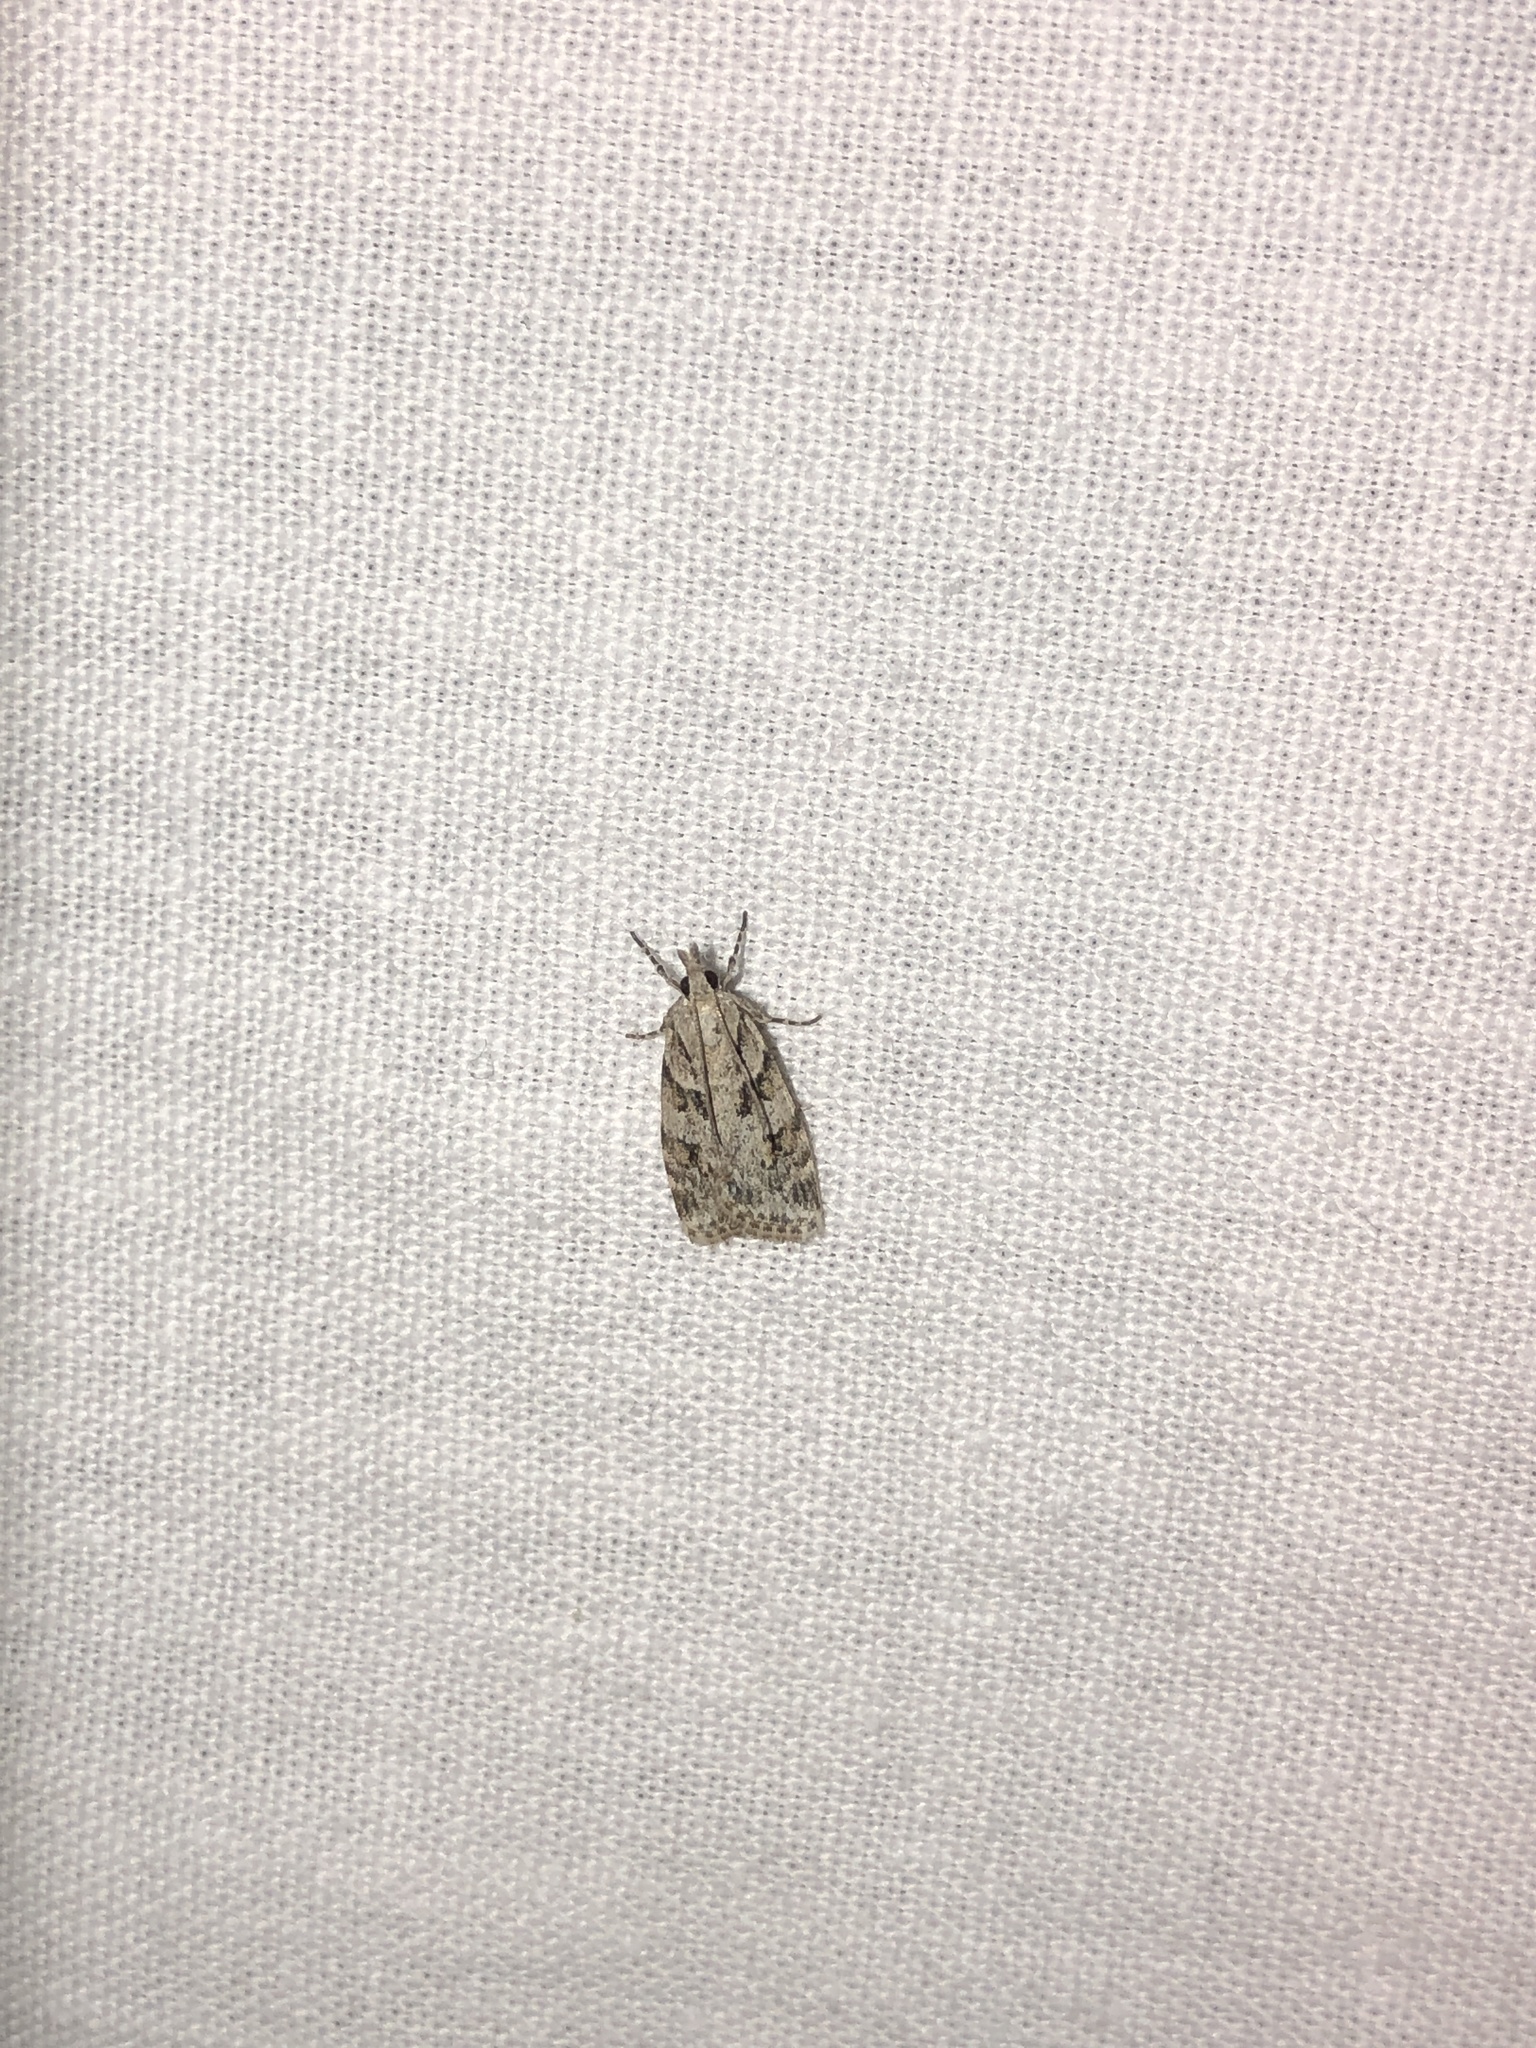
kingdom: Animalia
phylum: Arthropoda
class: Insecta
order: Lepidoptera
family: Crambidae
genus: Scoparia
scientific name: Scoparia biplagialis
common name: Double-striped scoparia moth
